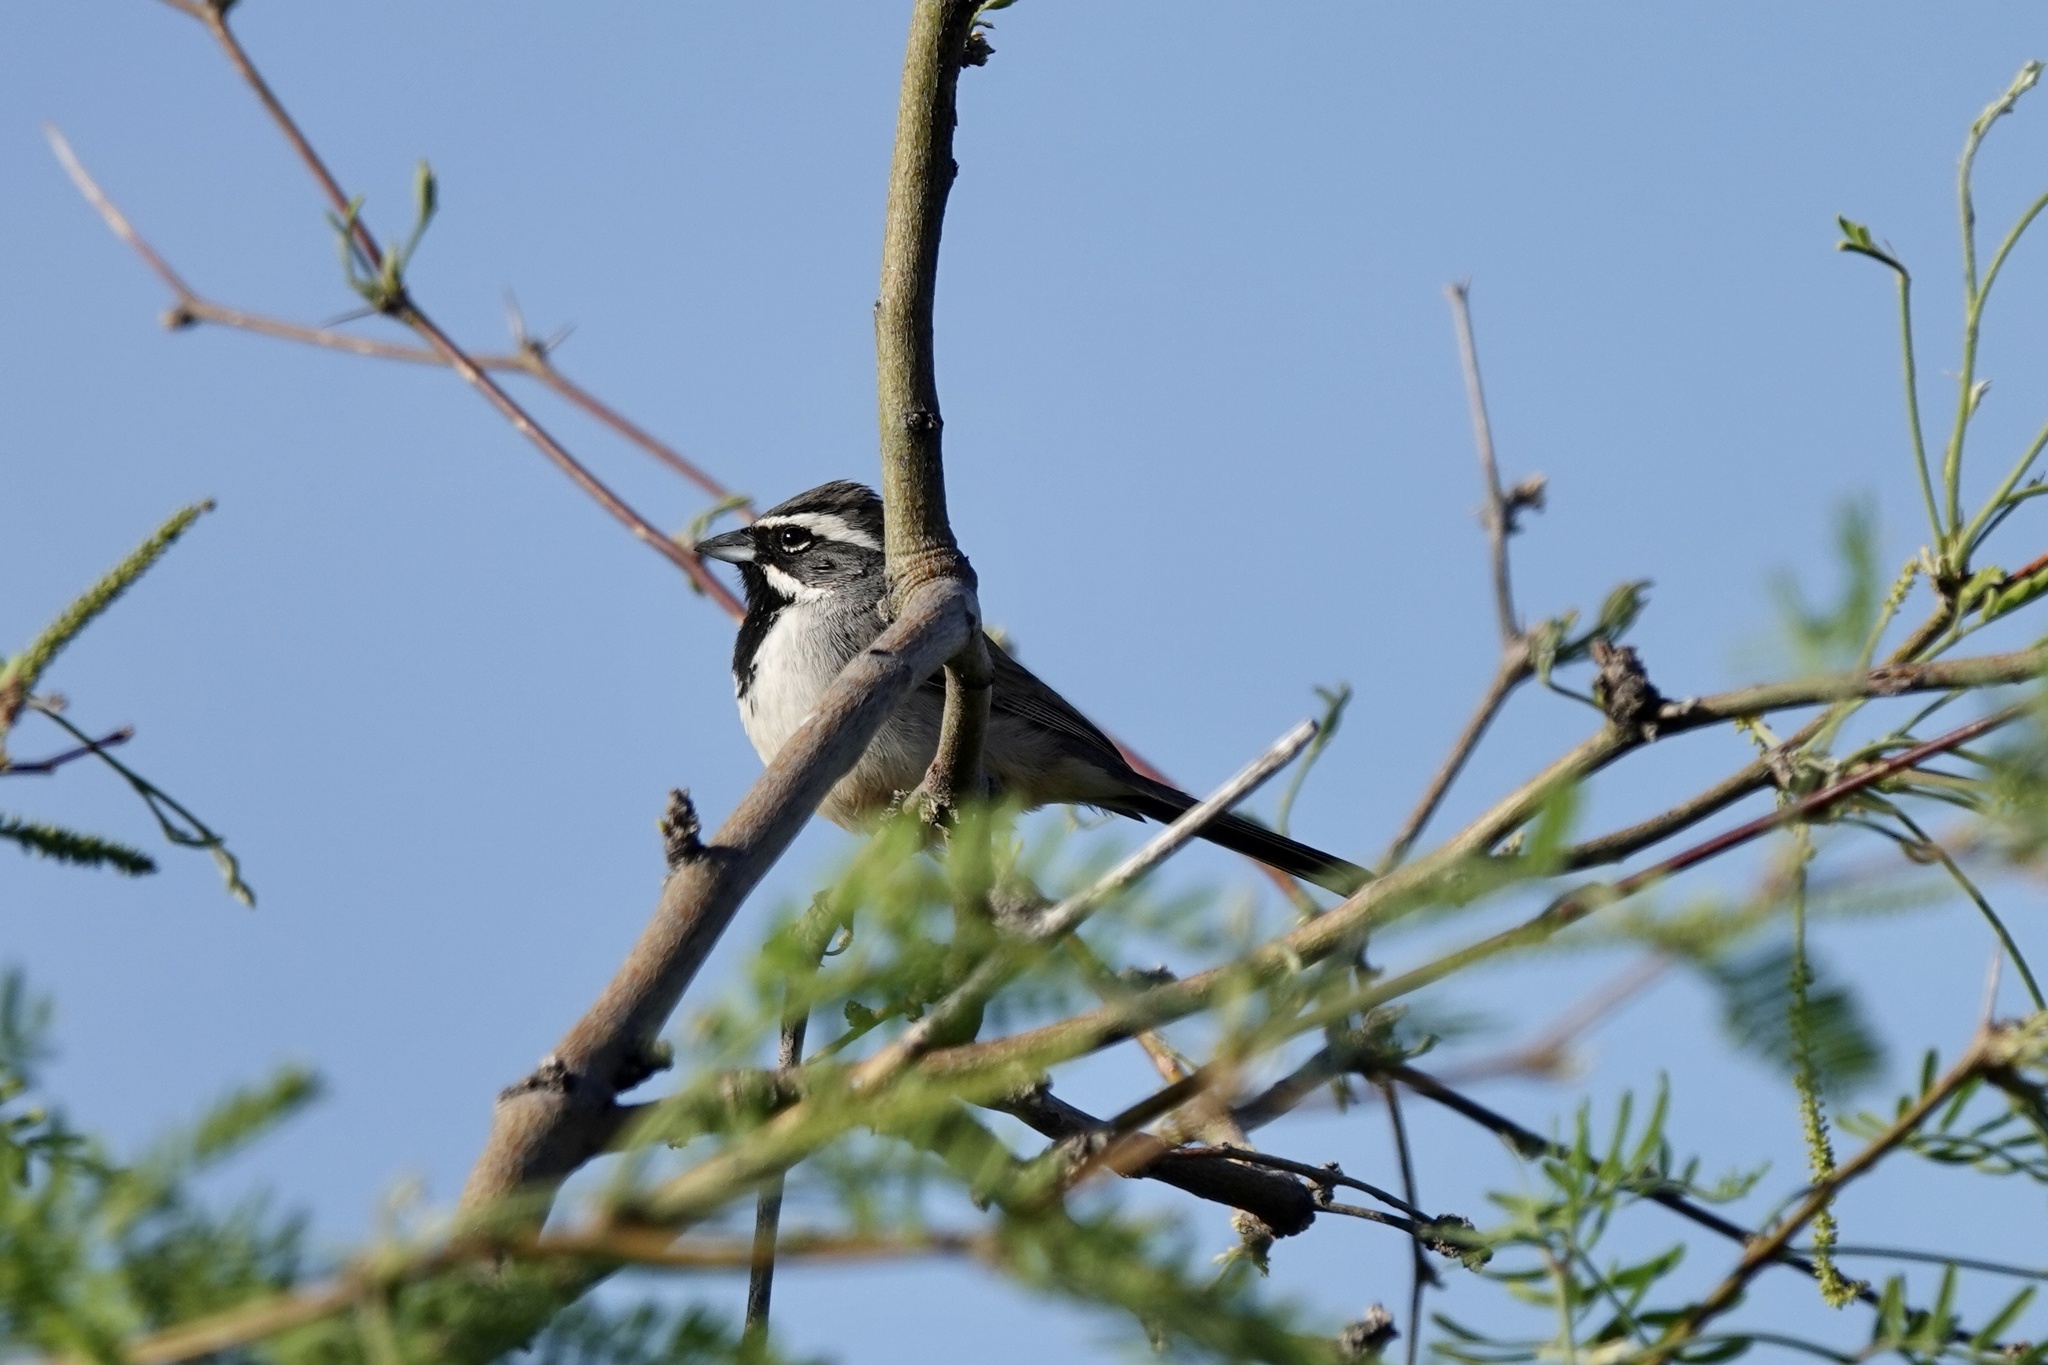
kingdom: Animalia
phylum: Chordata
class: Aves
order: Passeriformes
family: Passerellidae
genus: Amphispiza
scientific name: Amphispiza bilineata
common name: Black-throated sparrow
